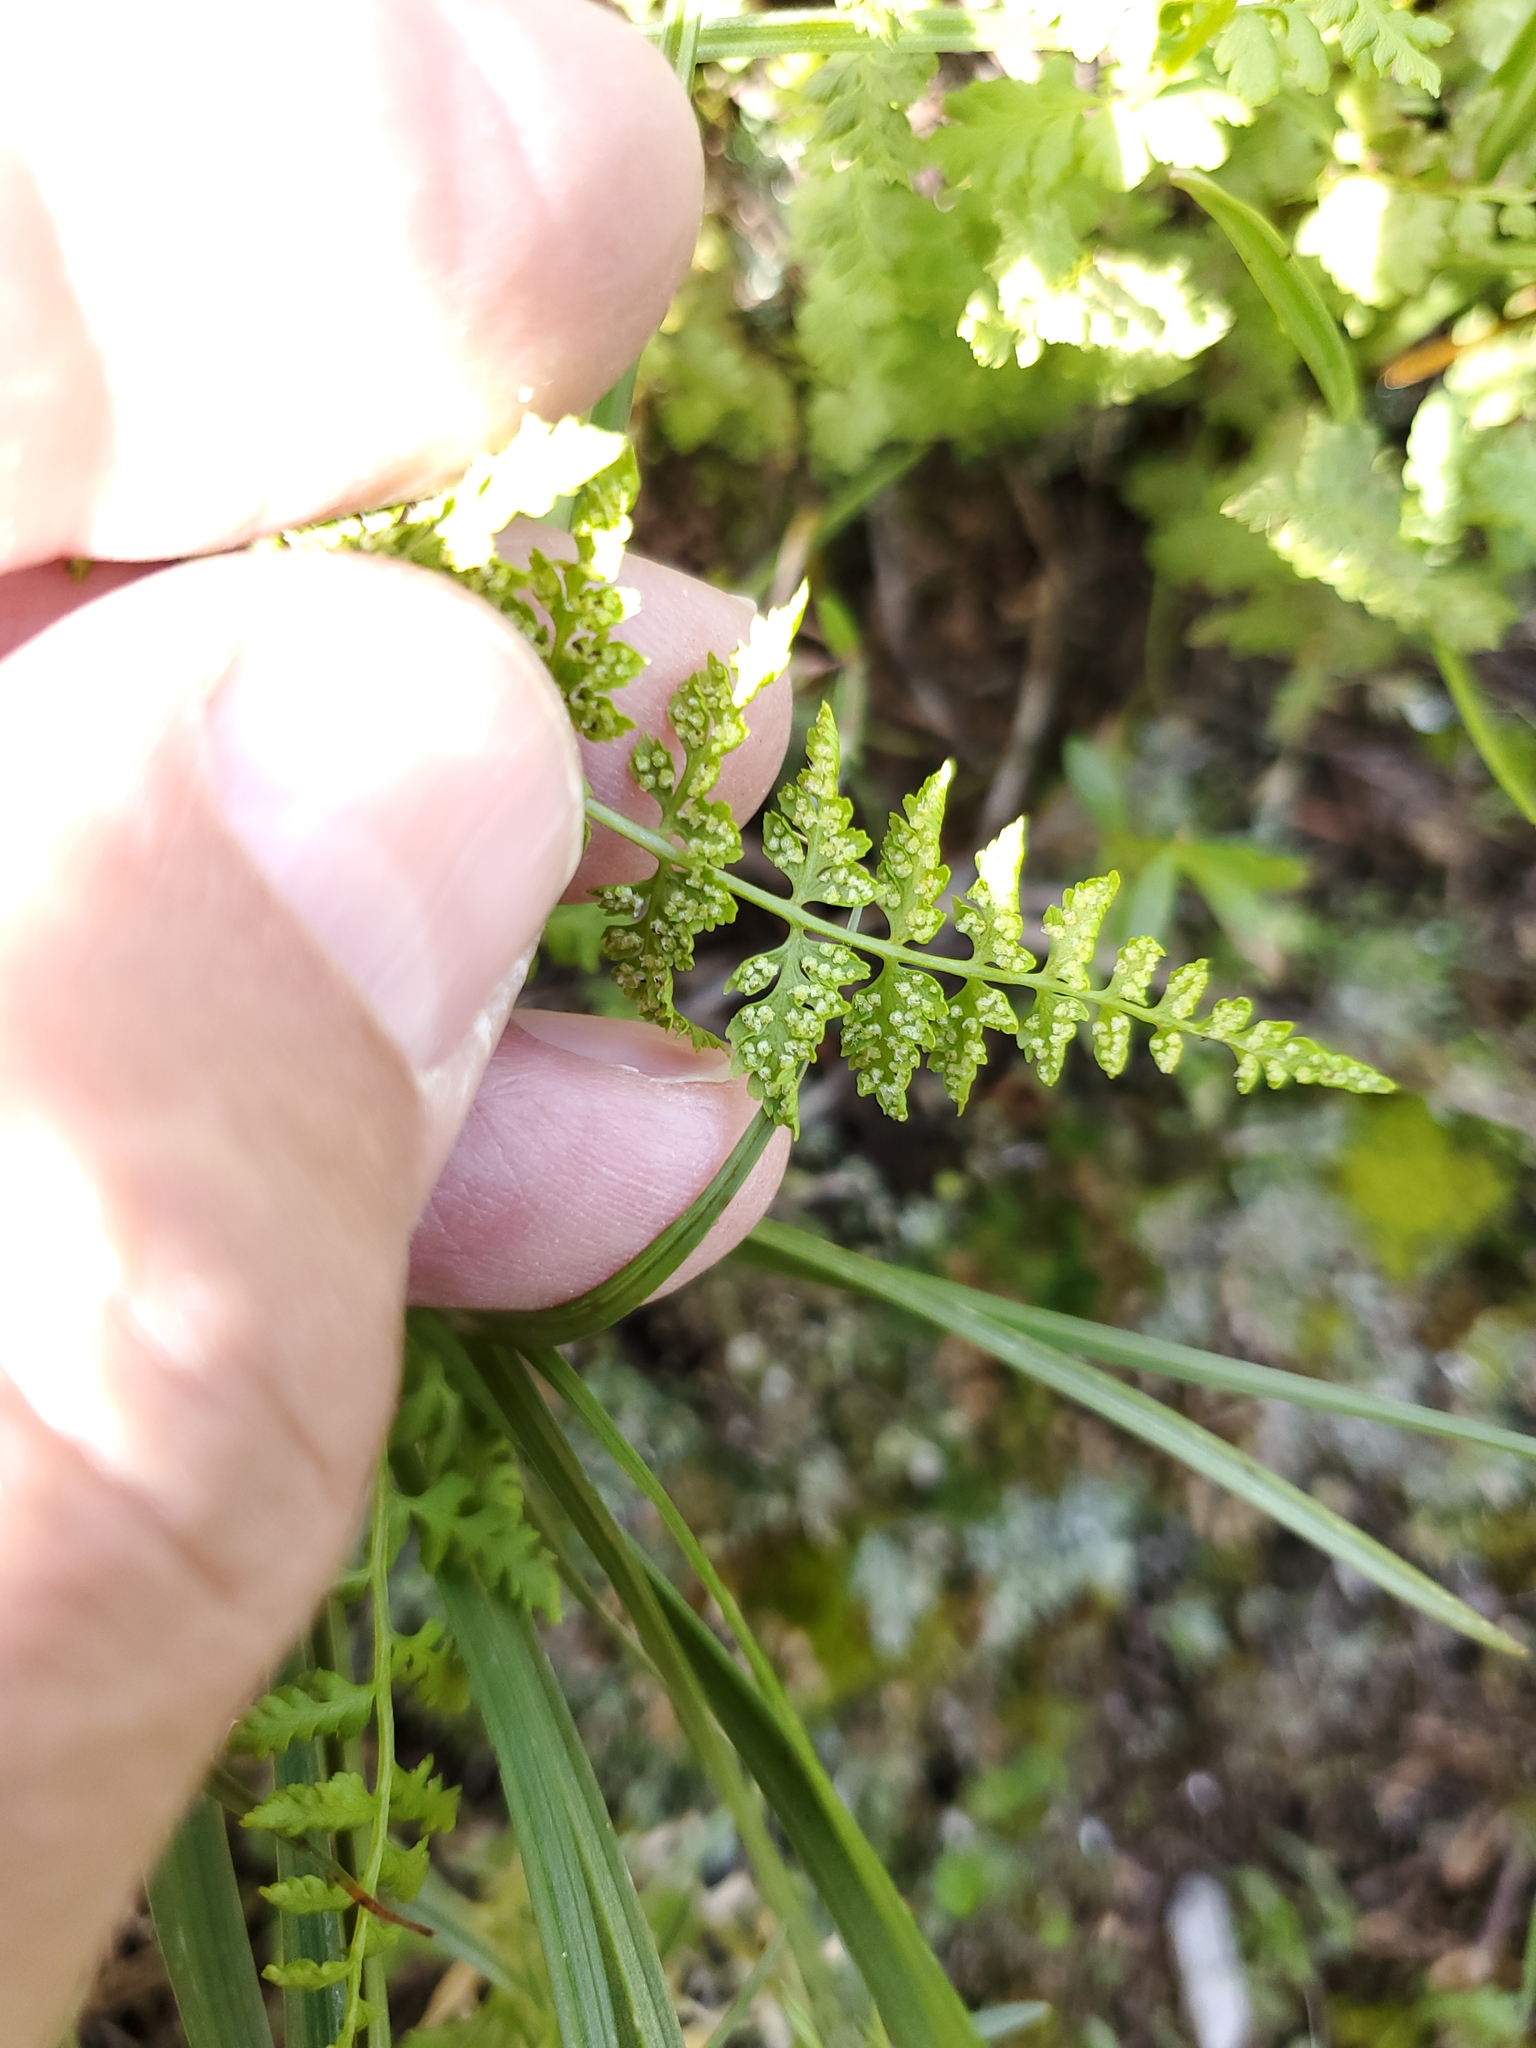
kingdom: Plantae
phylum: Tracheophyta
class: Polypodiopsida
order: Polypodiales
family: Cystopteridaceae
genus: Cystopteris
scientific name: Cystopteris fragilis
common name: Brittle bladder fern
